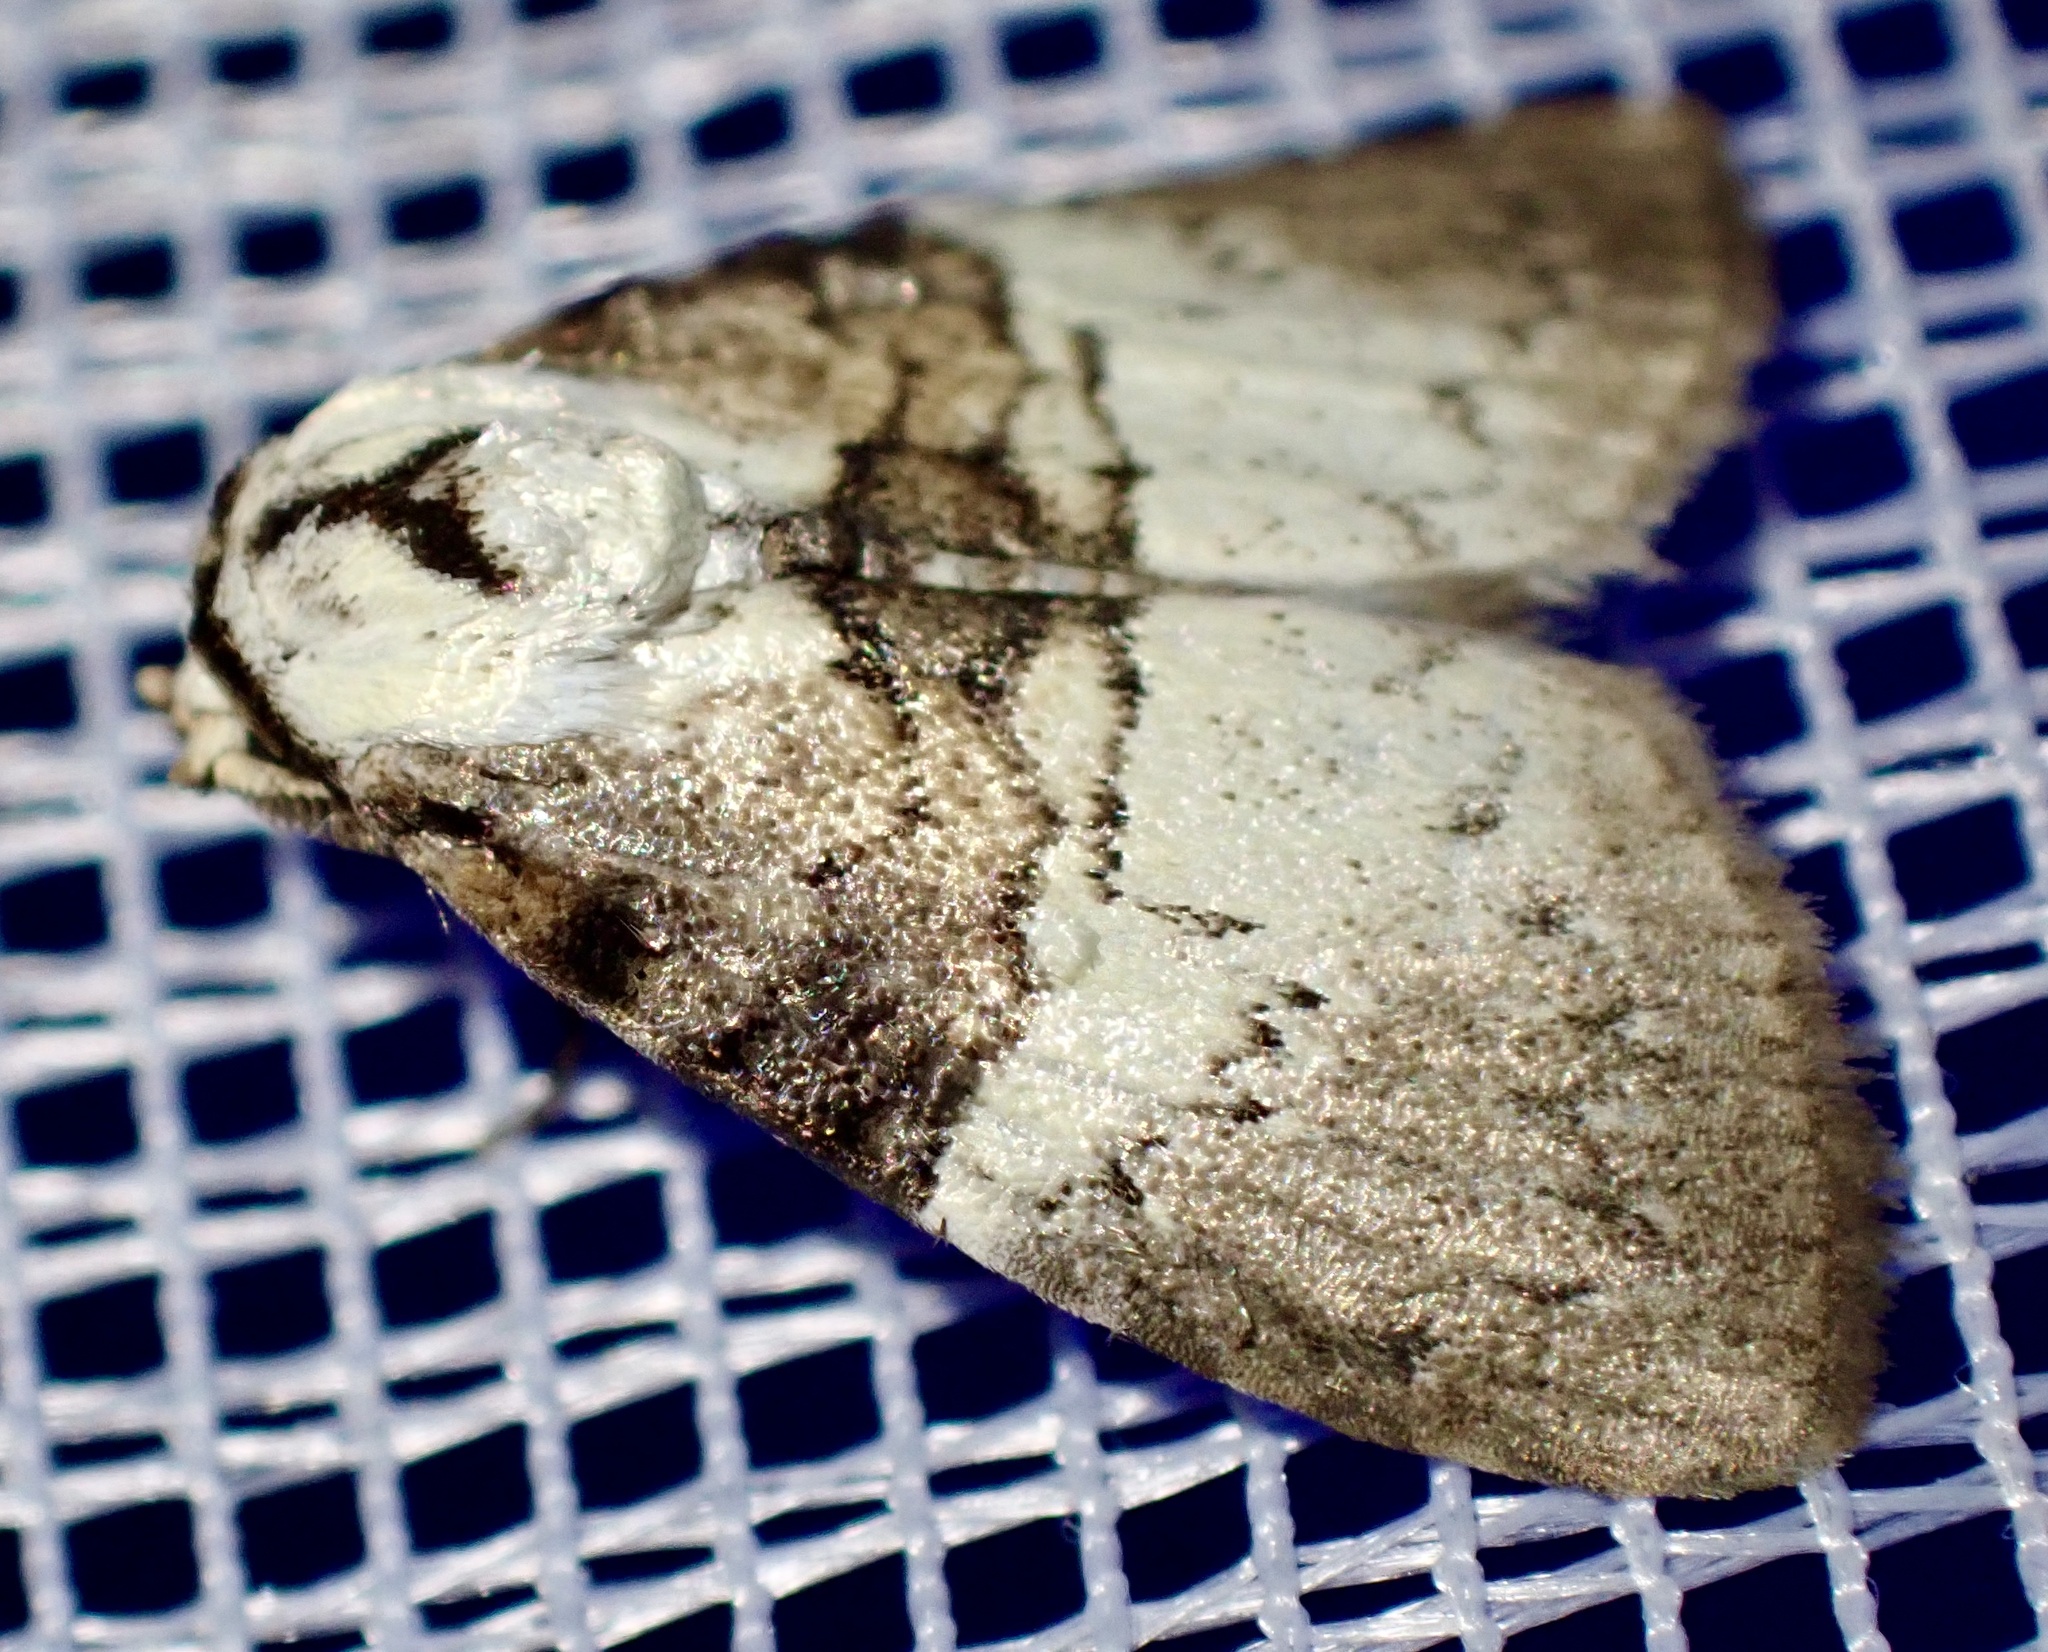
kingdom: Animalia
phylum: Arthropoda
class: Insecta
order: Lepidoptera
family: Nolidae
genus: Acatapaustus
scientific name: Acatapaustus mesoleuca
